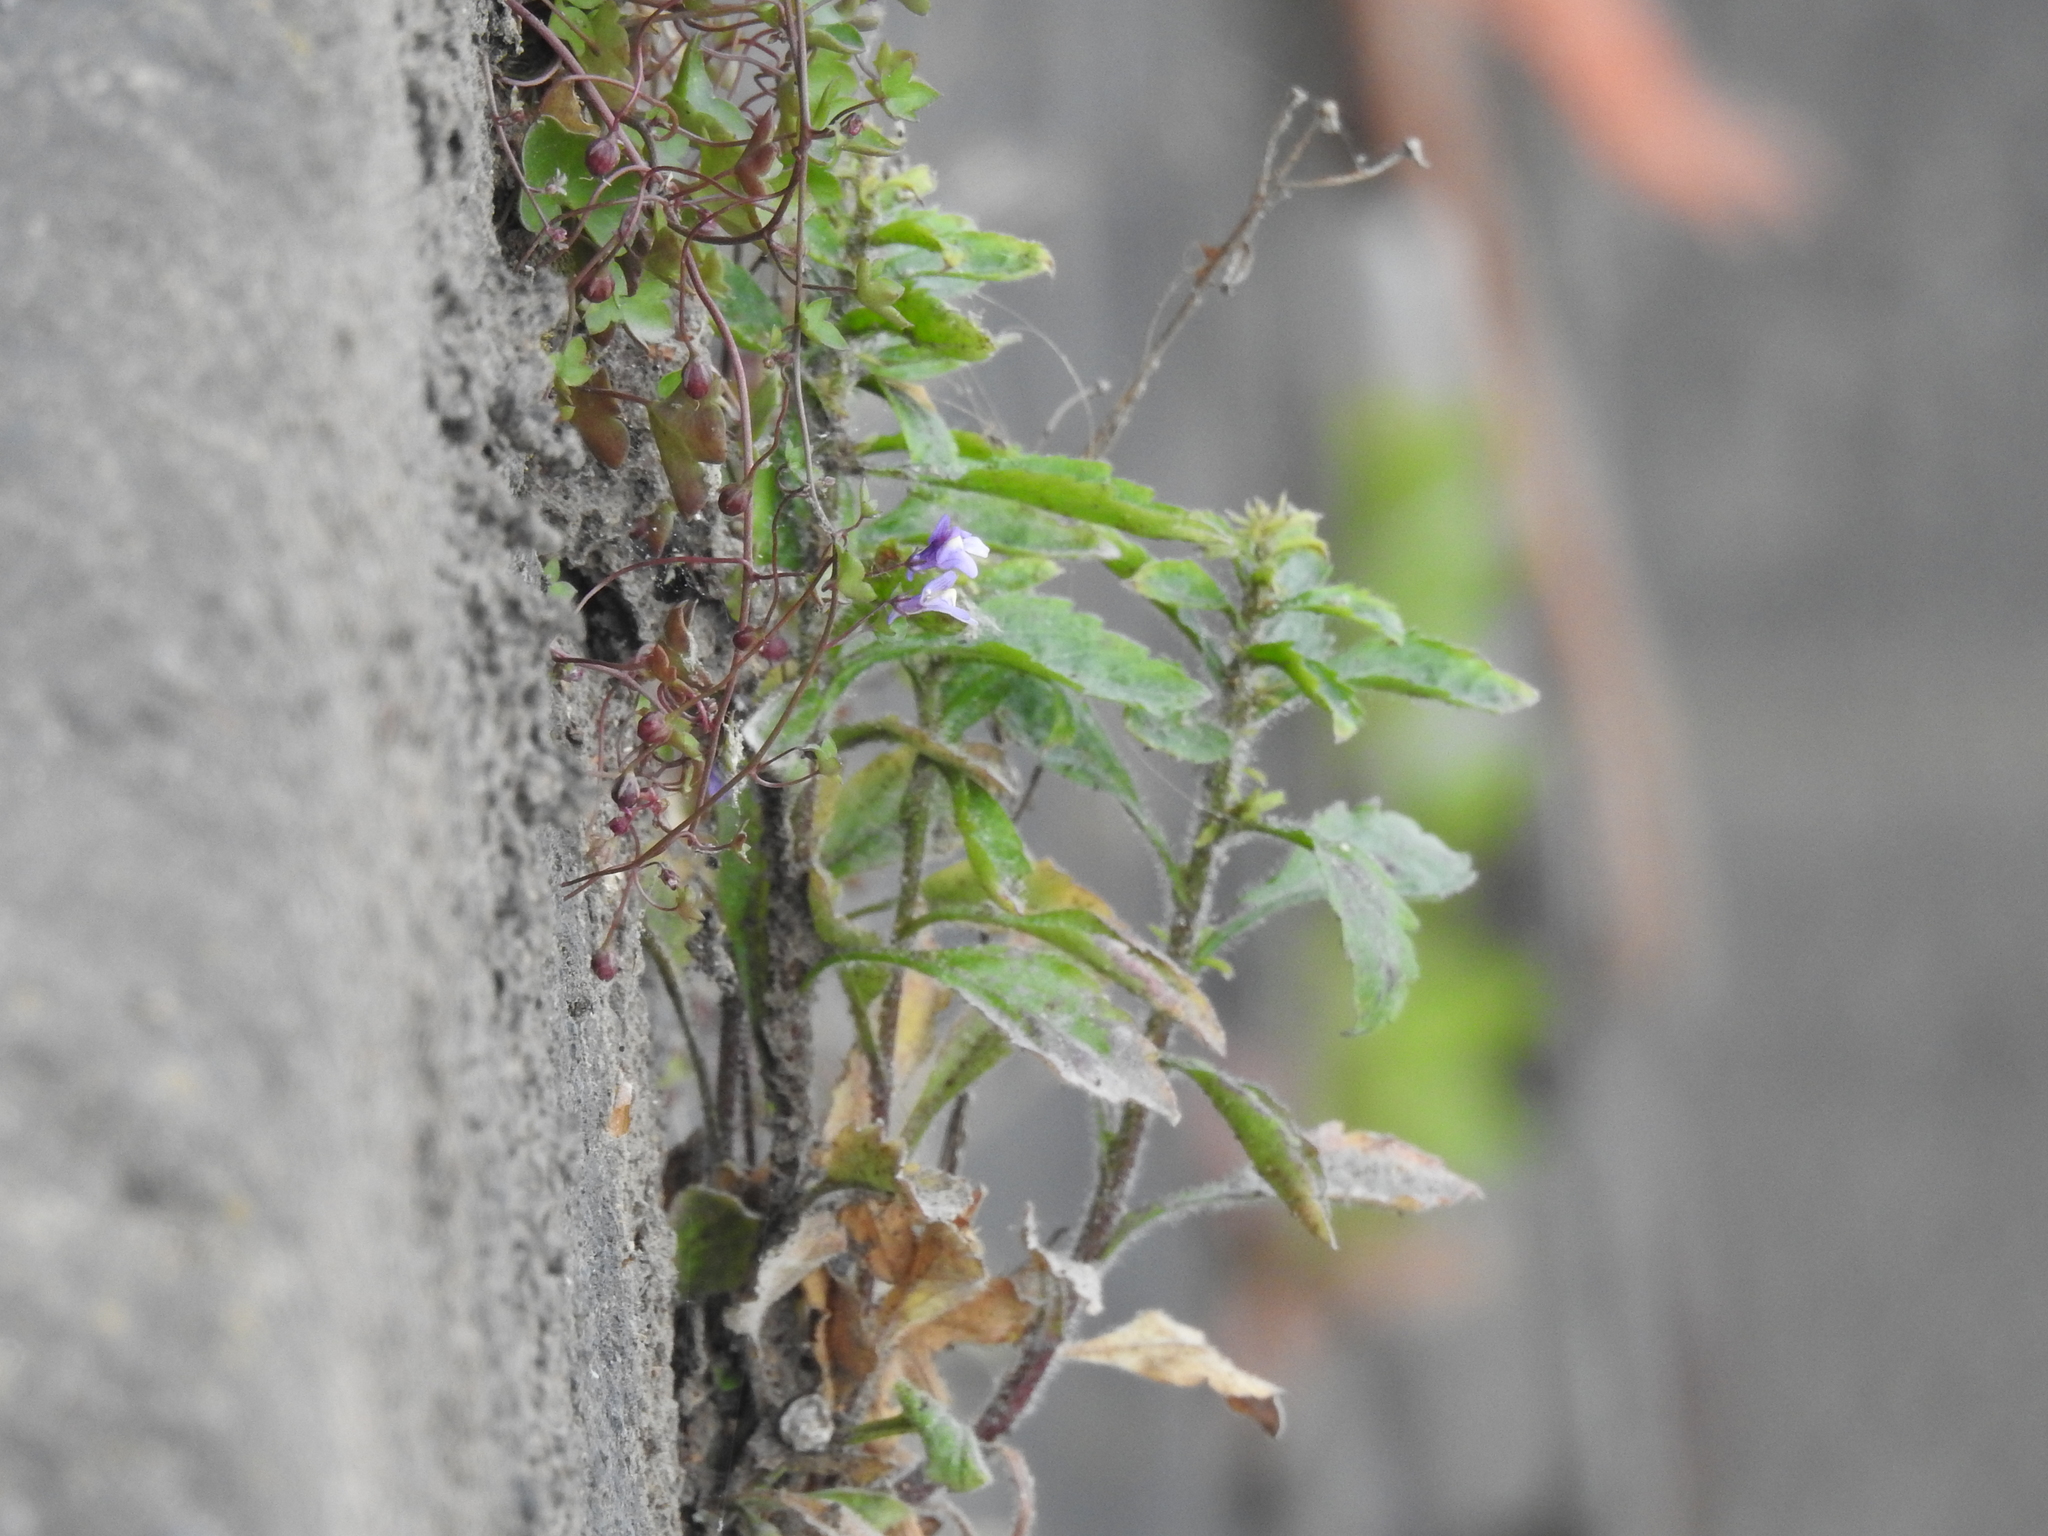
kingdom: Plantae
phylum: Tracheophyta
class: Magnoliopsida
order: Lamiales
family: Plantaginaceae
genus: Cymbalaria
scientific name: Cymbalaria muralis
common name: Ivy-leaved toadflax
